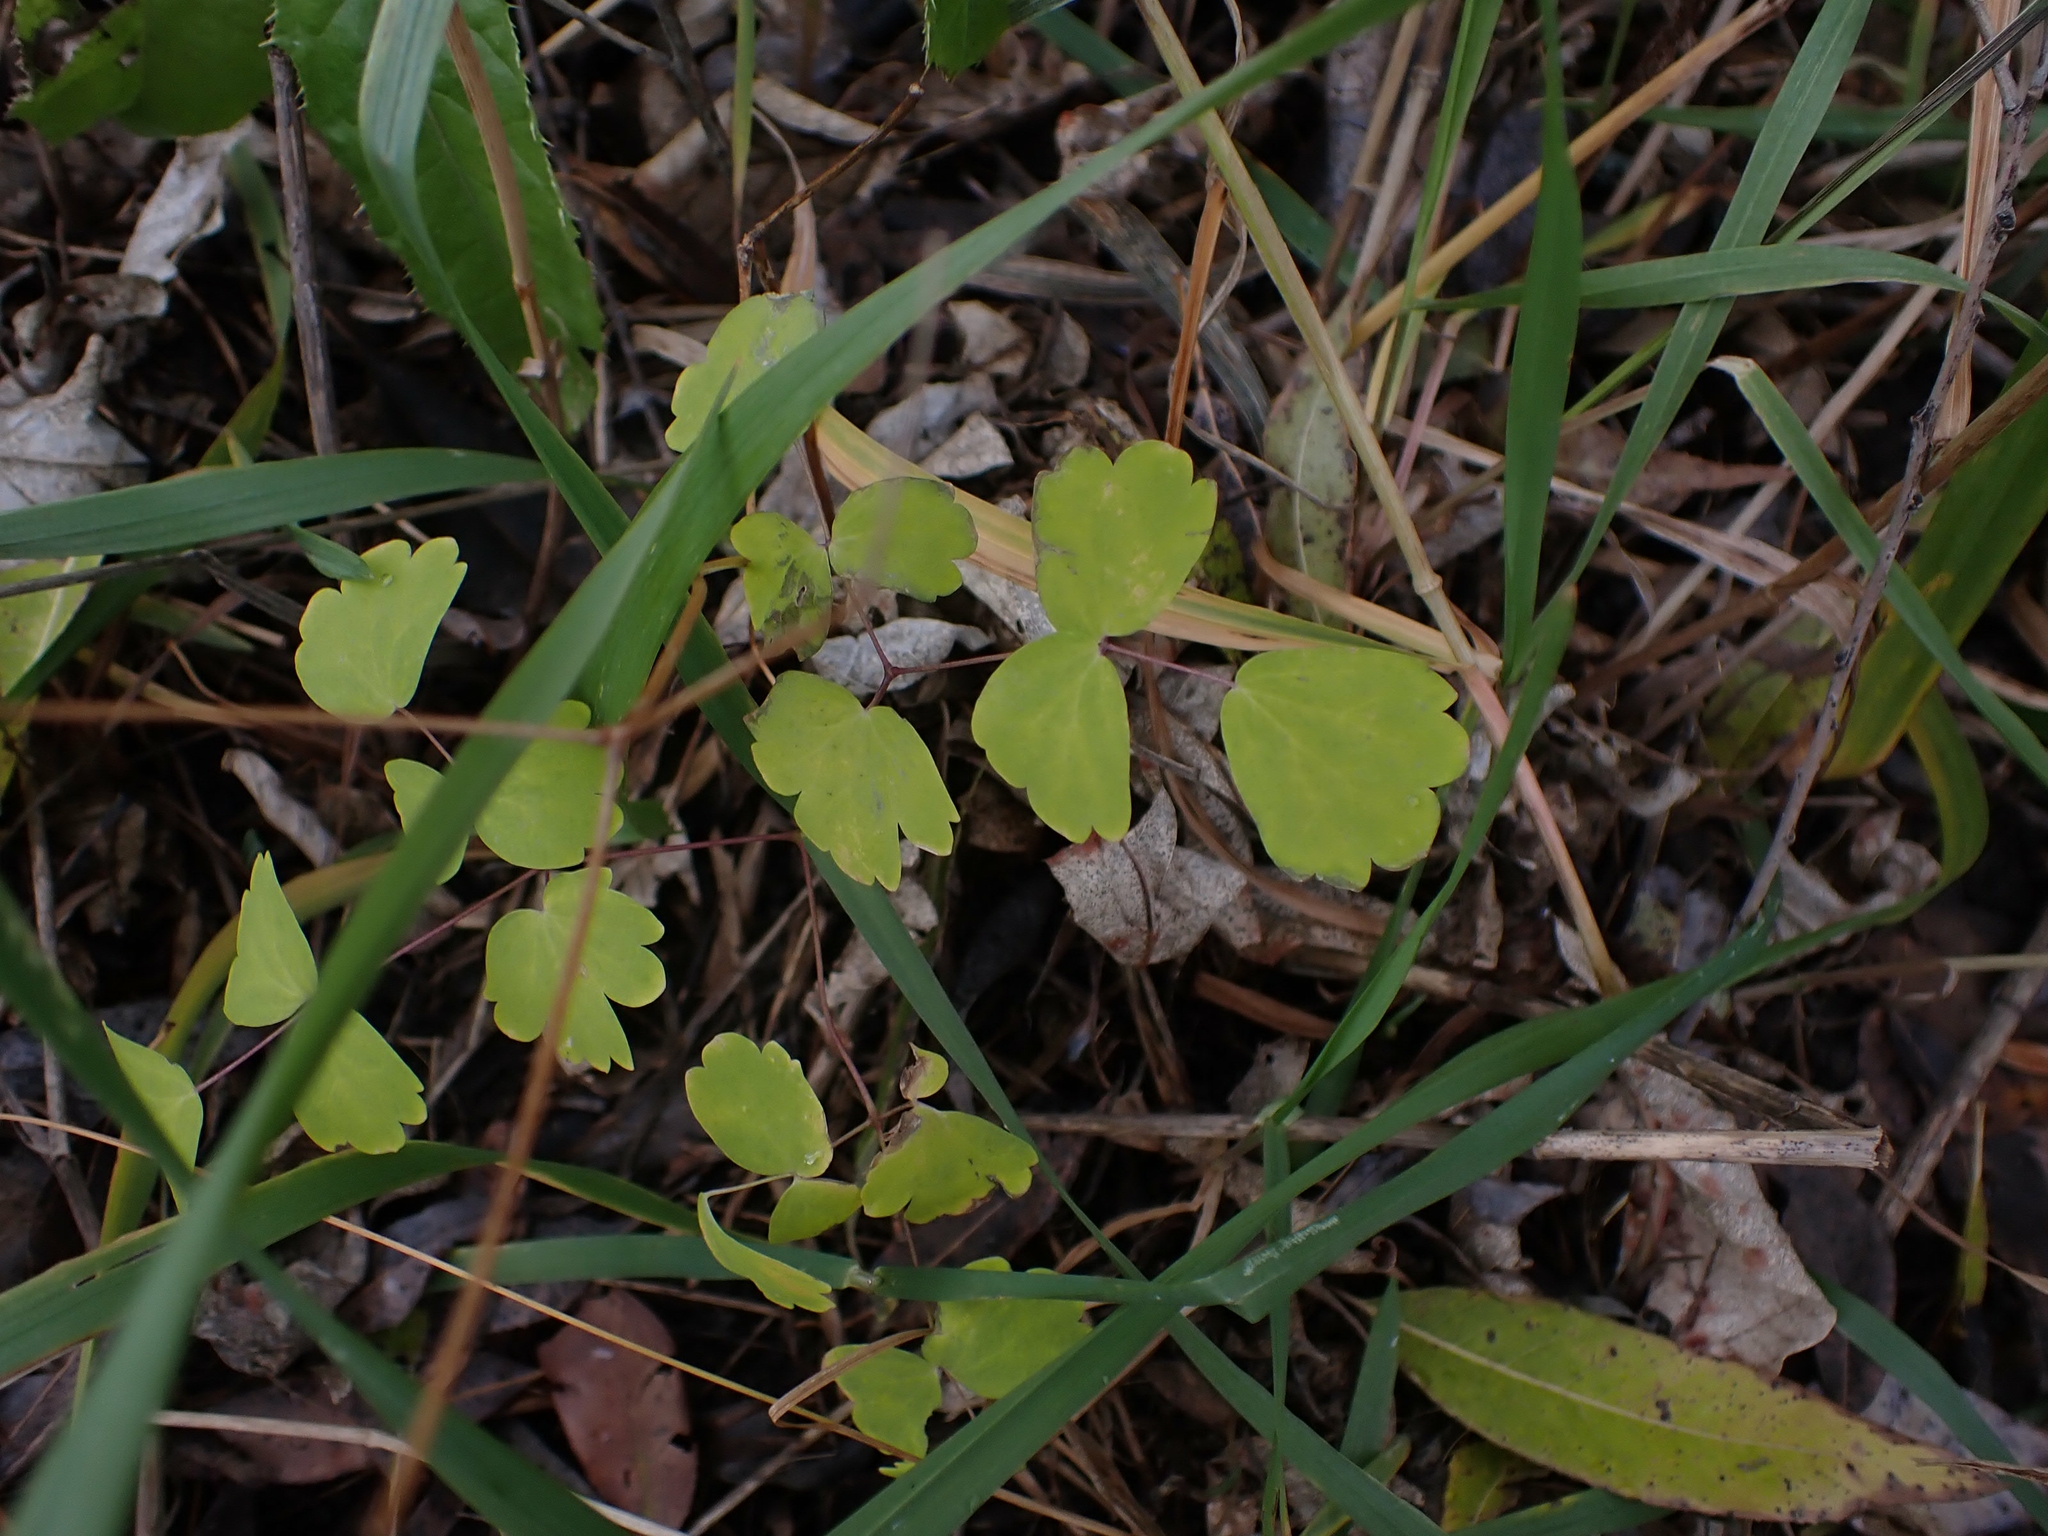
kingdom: Plantae
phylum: Tracheophyta
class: Magnoliopsida
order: Ranunculales
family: Ranunculaceae
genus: Thalictrum
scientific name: Thalictrum venulosum
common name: Early meadow-rue
